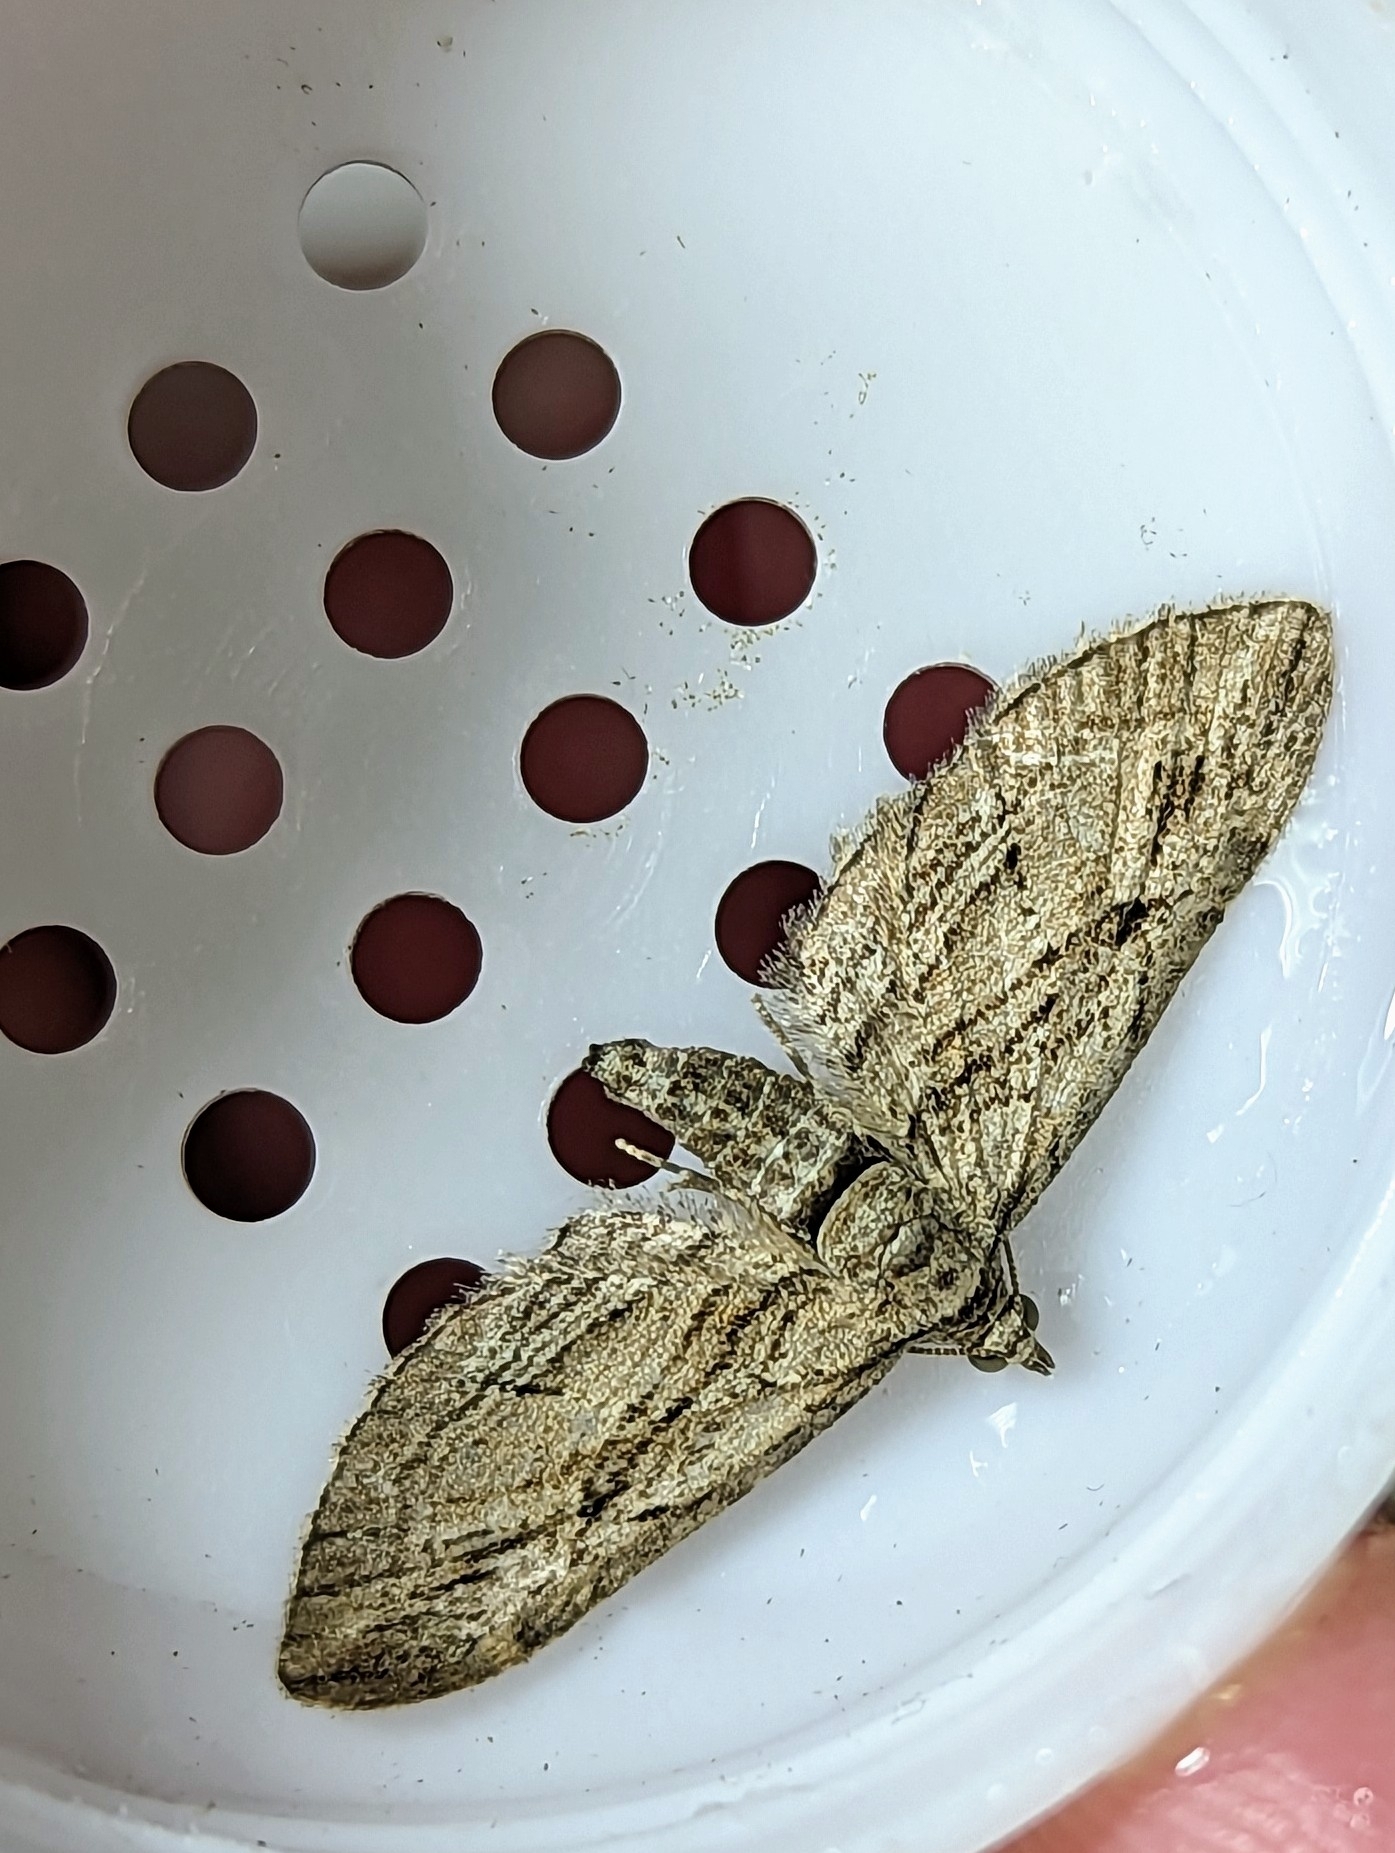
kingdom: Animalia
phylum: Arthropoda
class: Insecta
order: Lepidoptera
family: Geometridae
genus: Eupithecia
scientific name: Eupithecia phoeniceata
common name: Cypress pug
